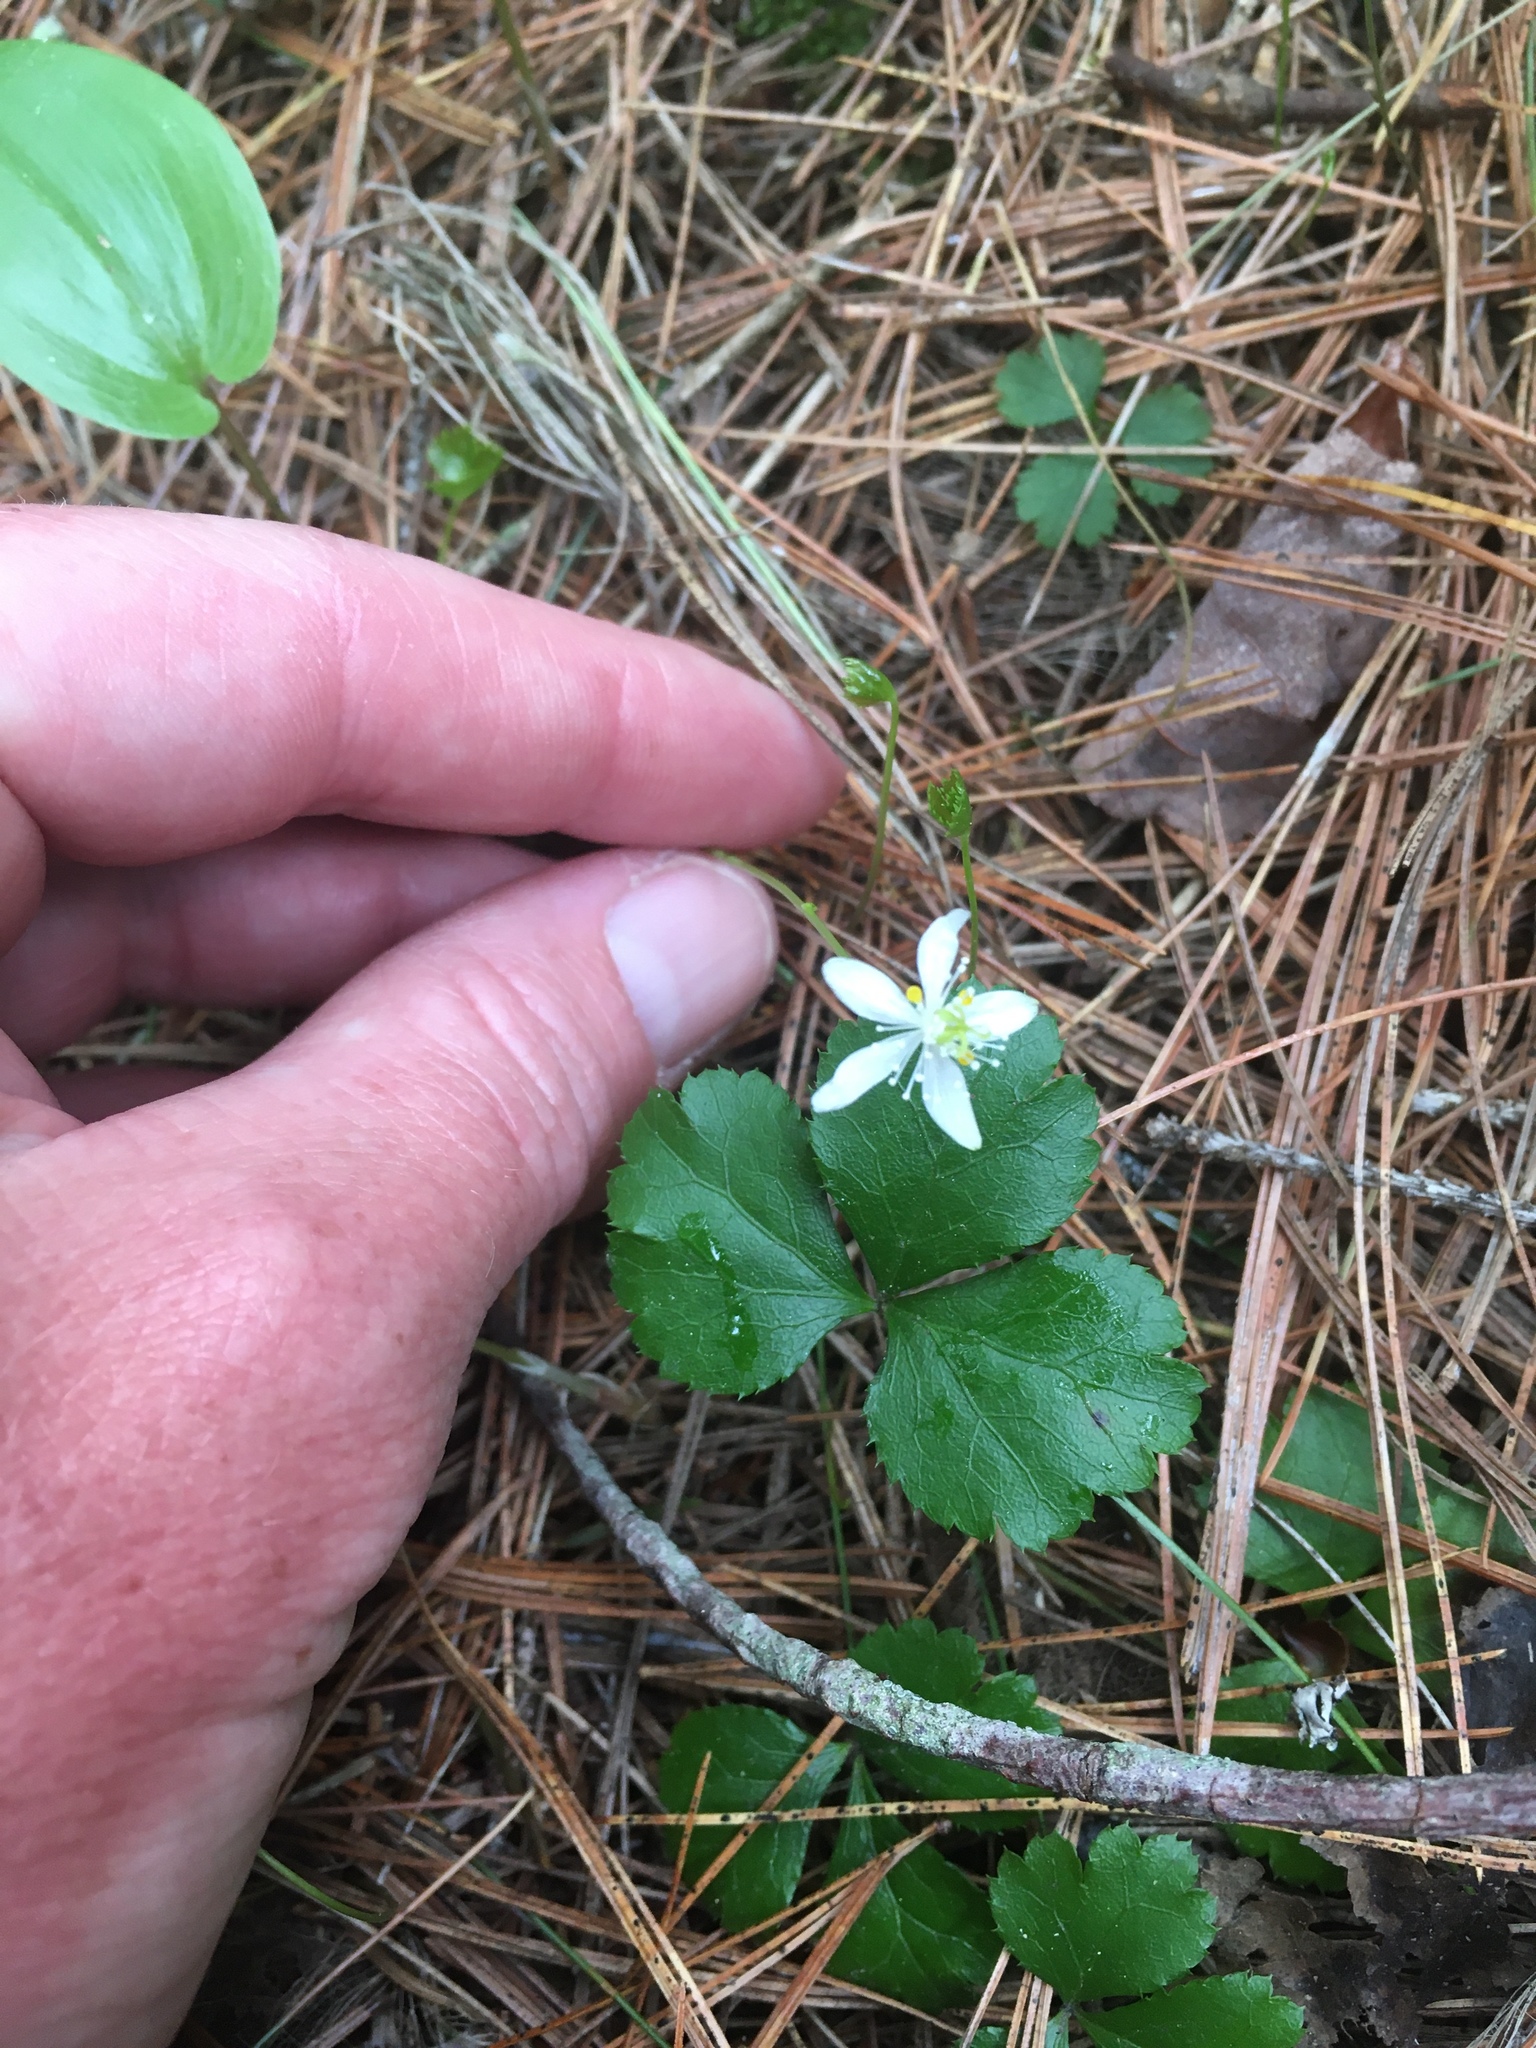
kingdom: Plantae
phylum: Tracheophyta
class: Magnoliopsida
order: Ranunculales
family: Ranunculaceae
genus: Coptis
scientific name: Coptis trifolia
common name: Canker-root
